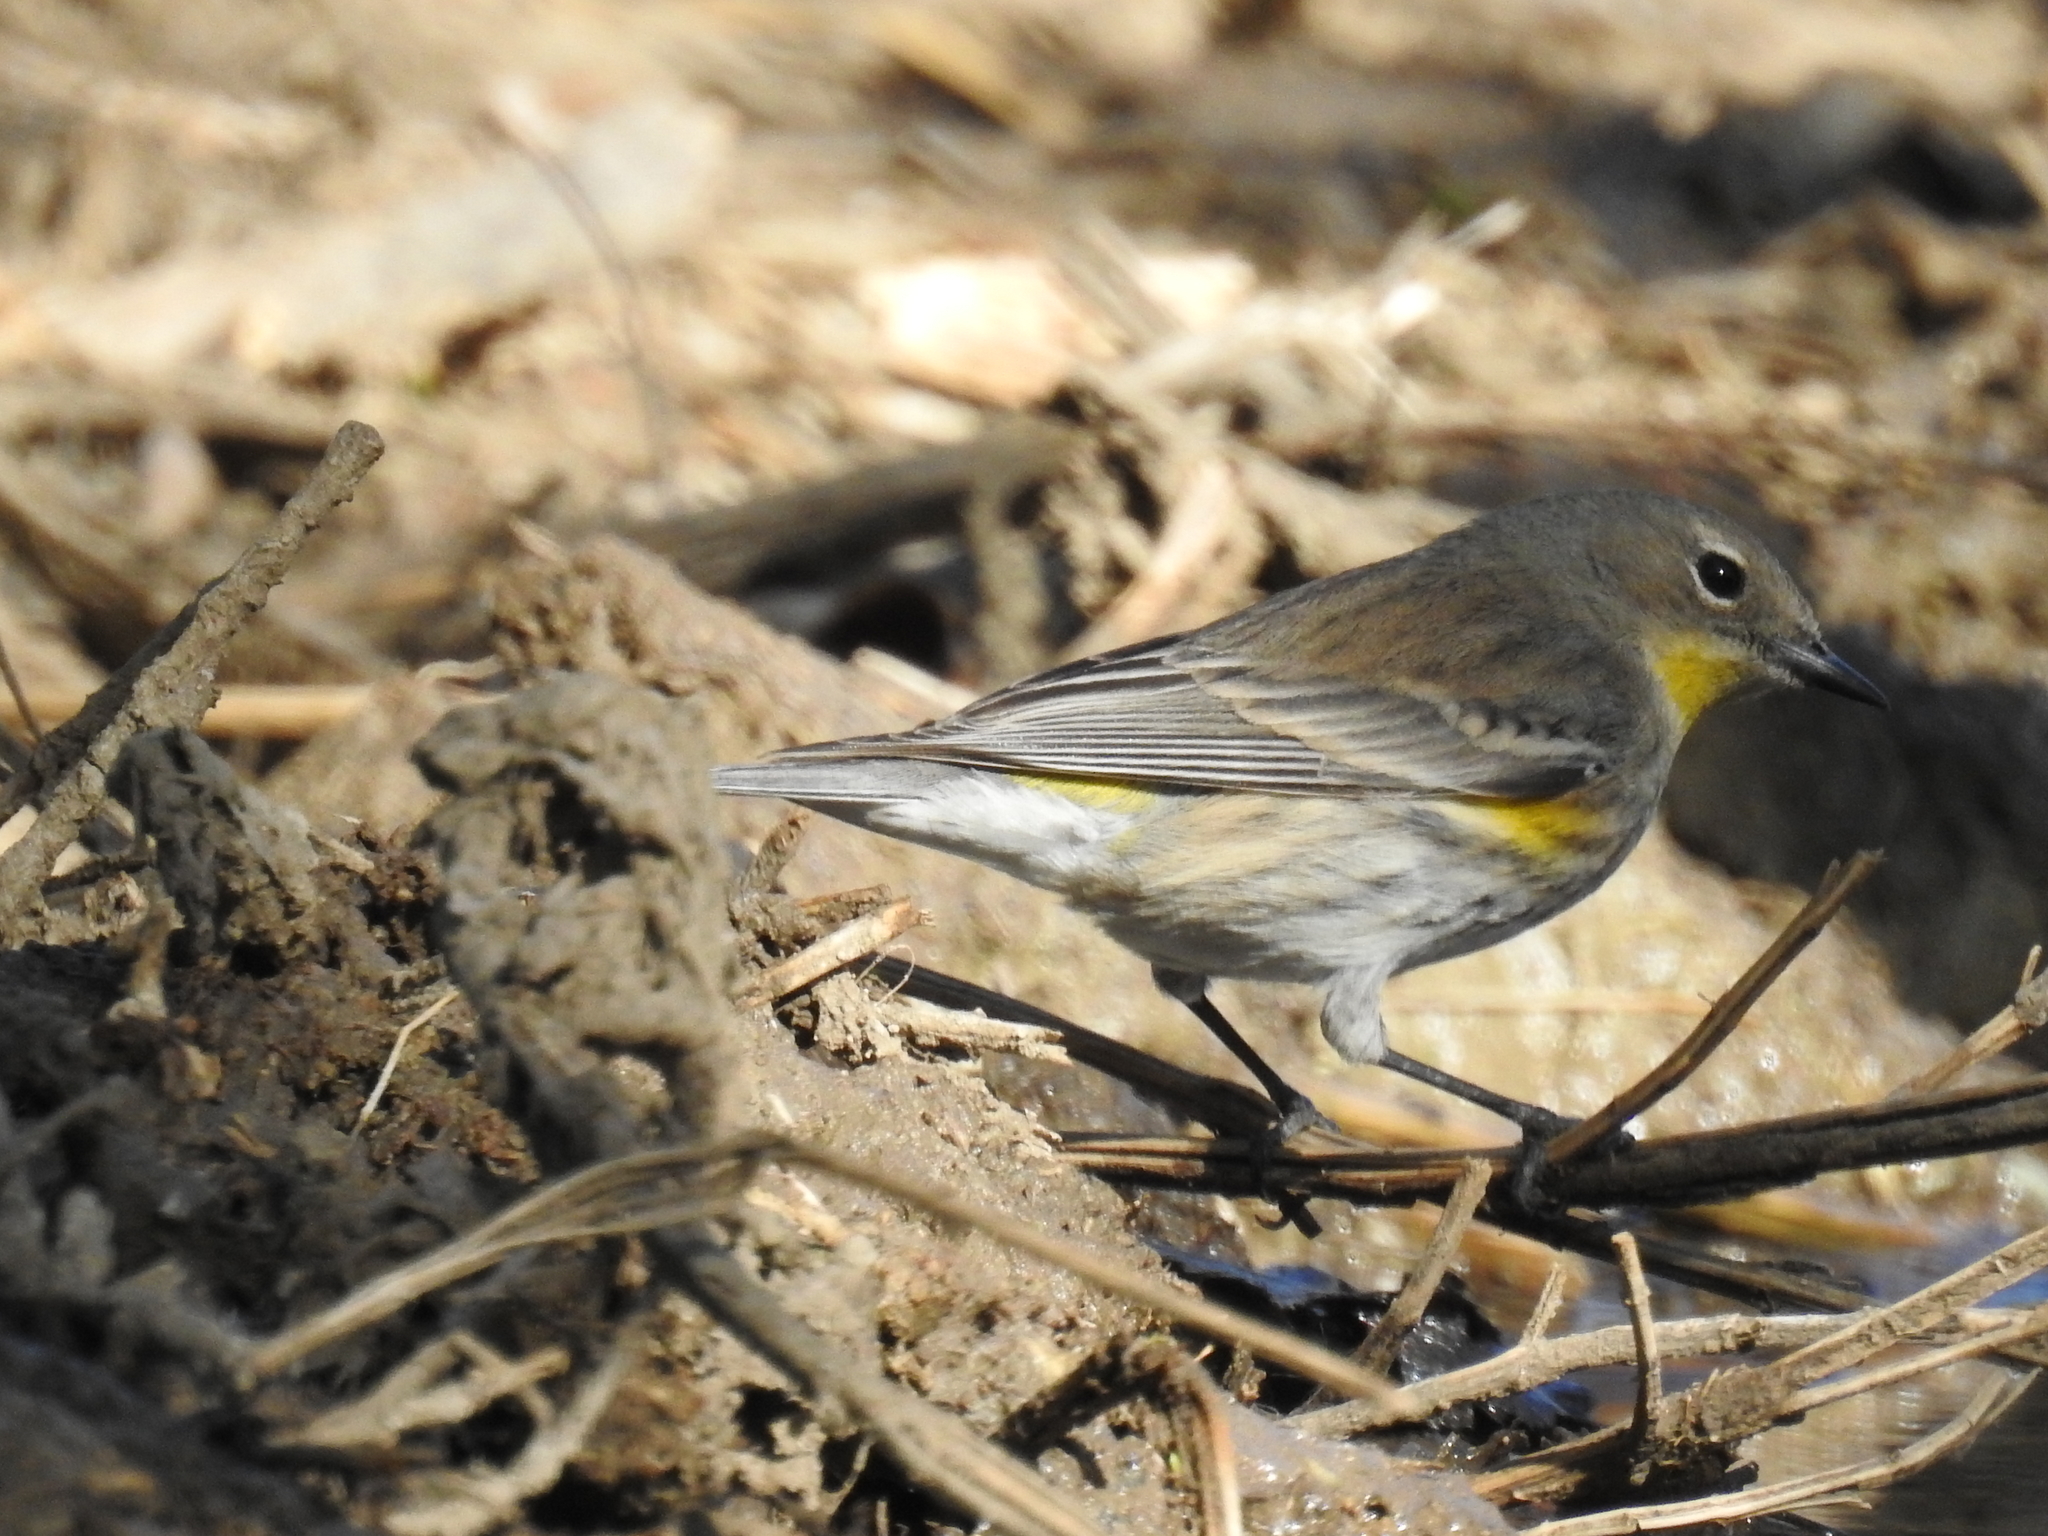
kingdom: Animalia
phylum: Chordata
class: Aves
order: Passeriformes
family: Parulidae
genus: Setophaga
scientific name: Setophaga coronata
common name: Myrtle warbler
